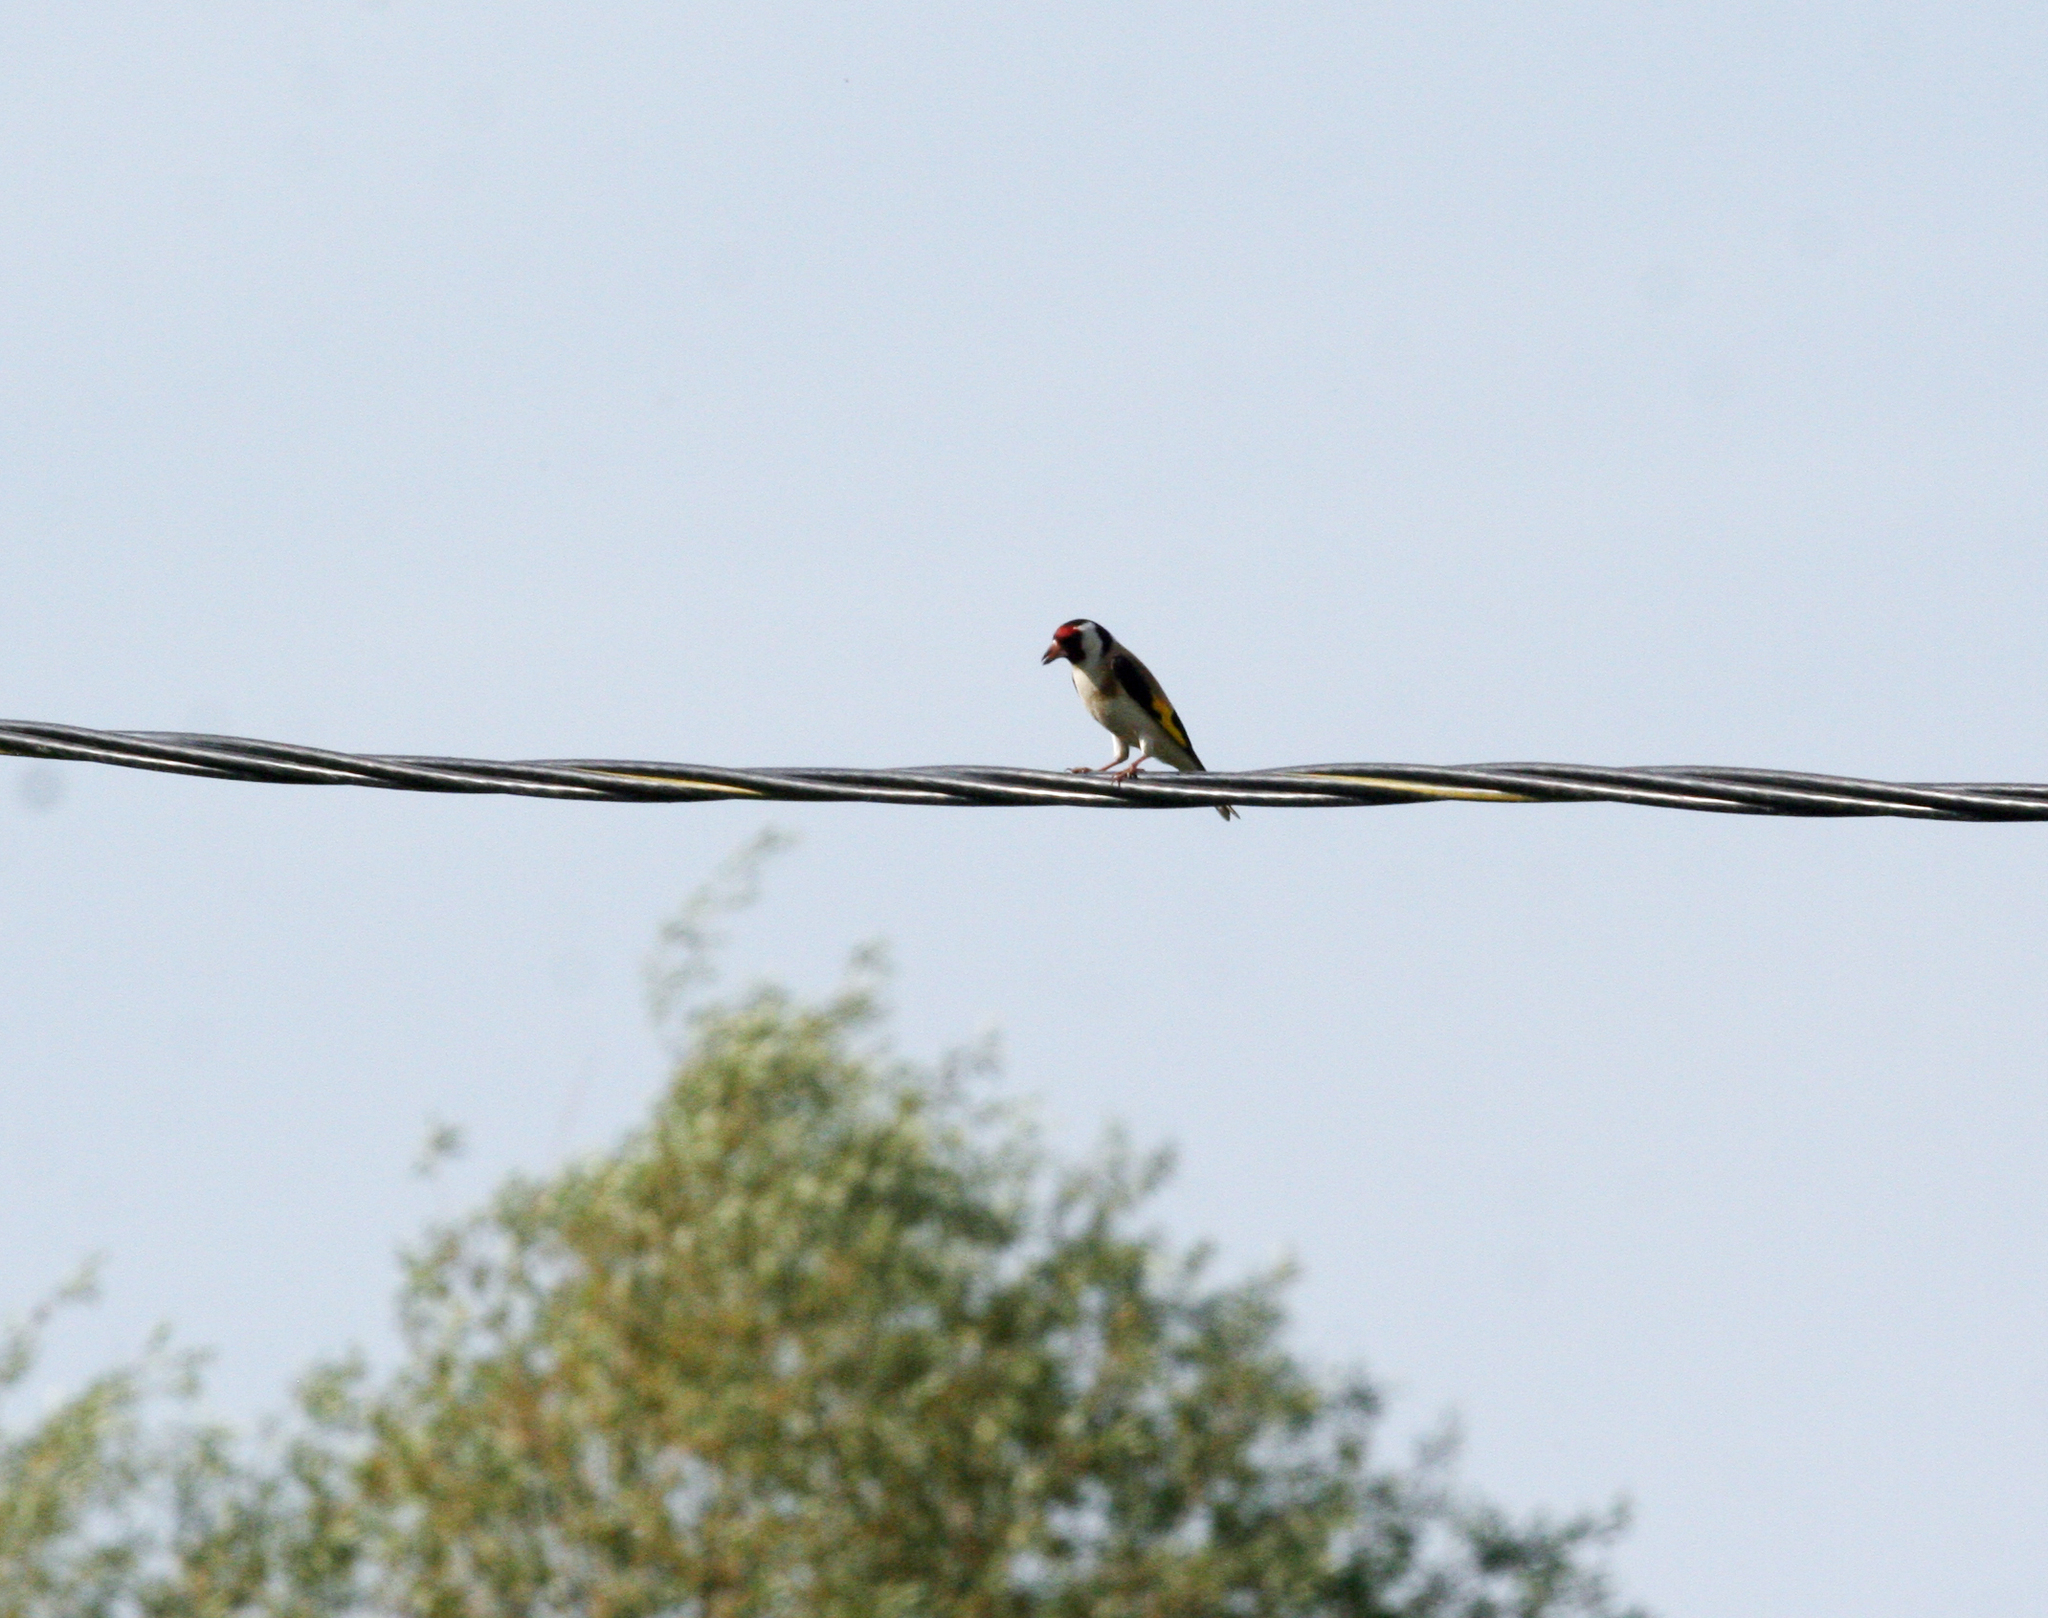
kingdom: Animalia
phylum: Chordata
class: Aves
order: Passeriformes
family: Fringillidae
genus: Carduelis
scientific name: Carduelis carduelis
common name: European goldfinch
